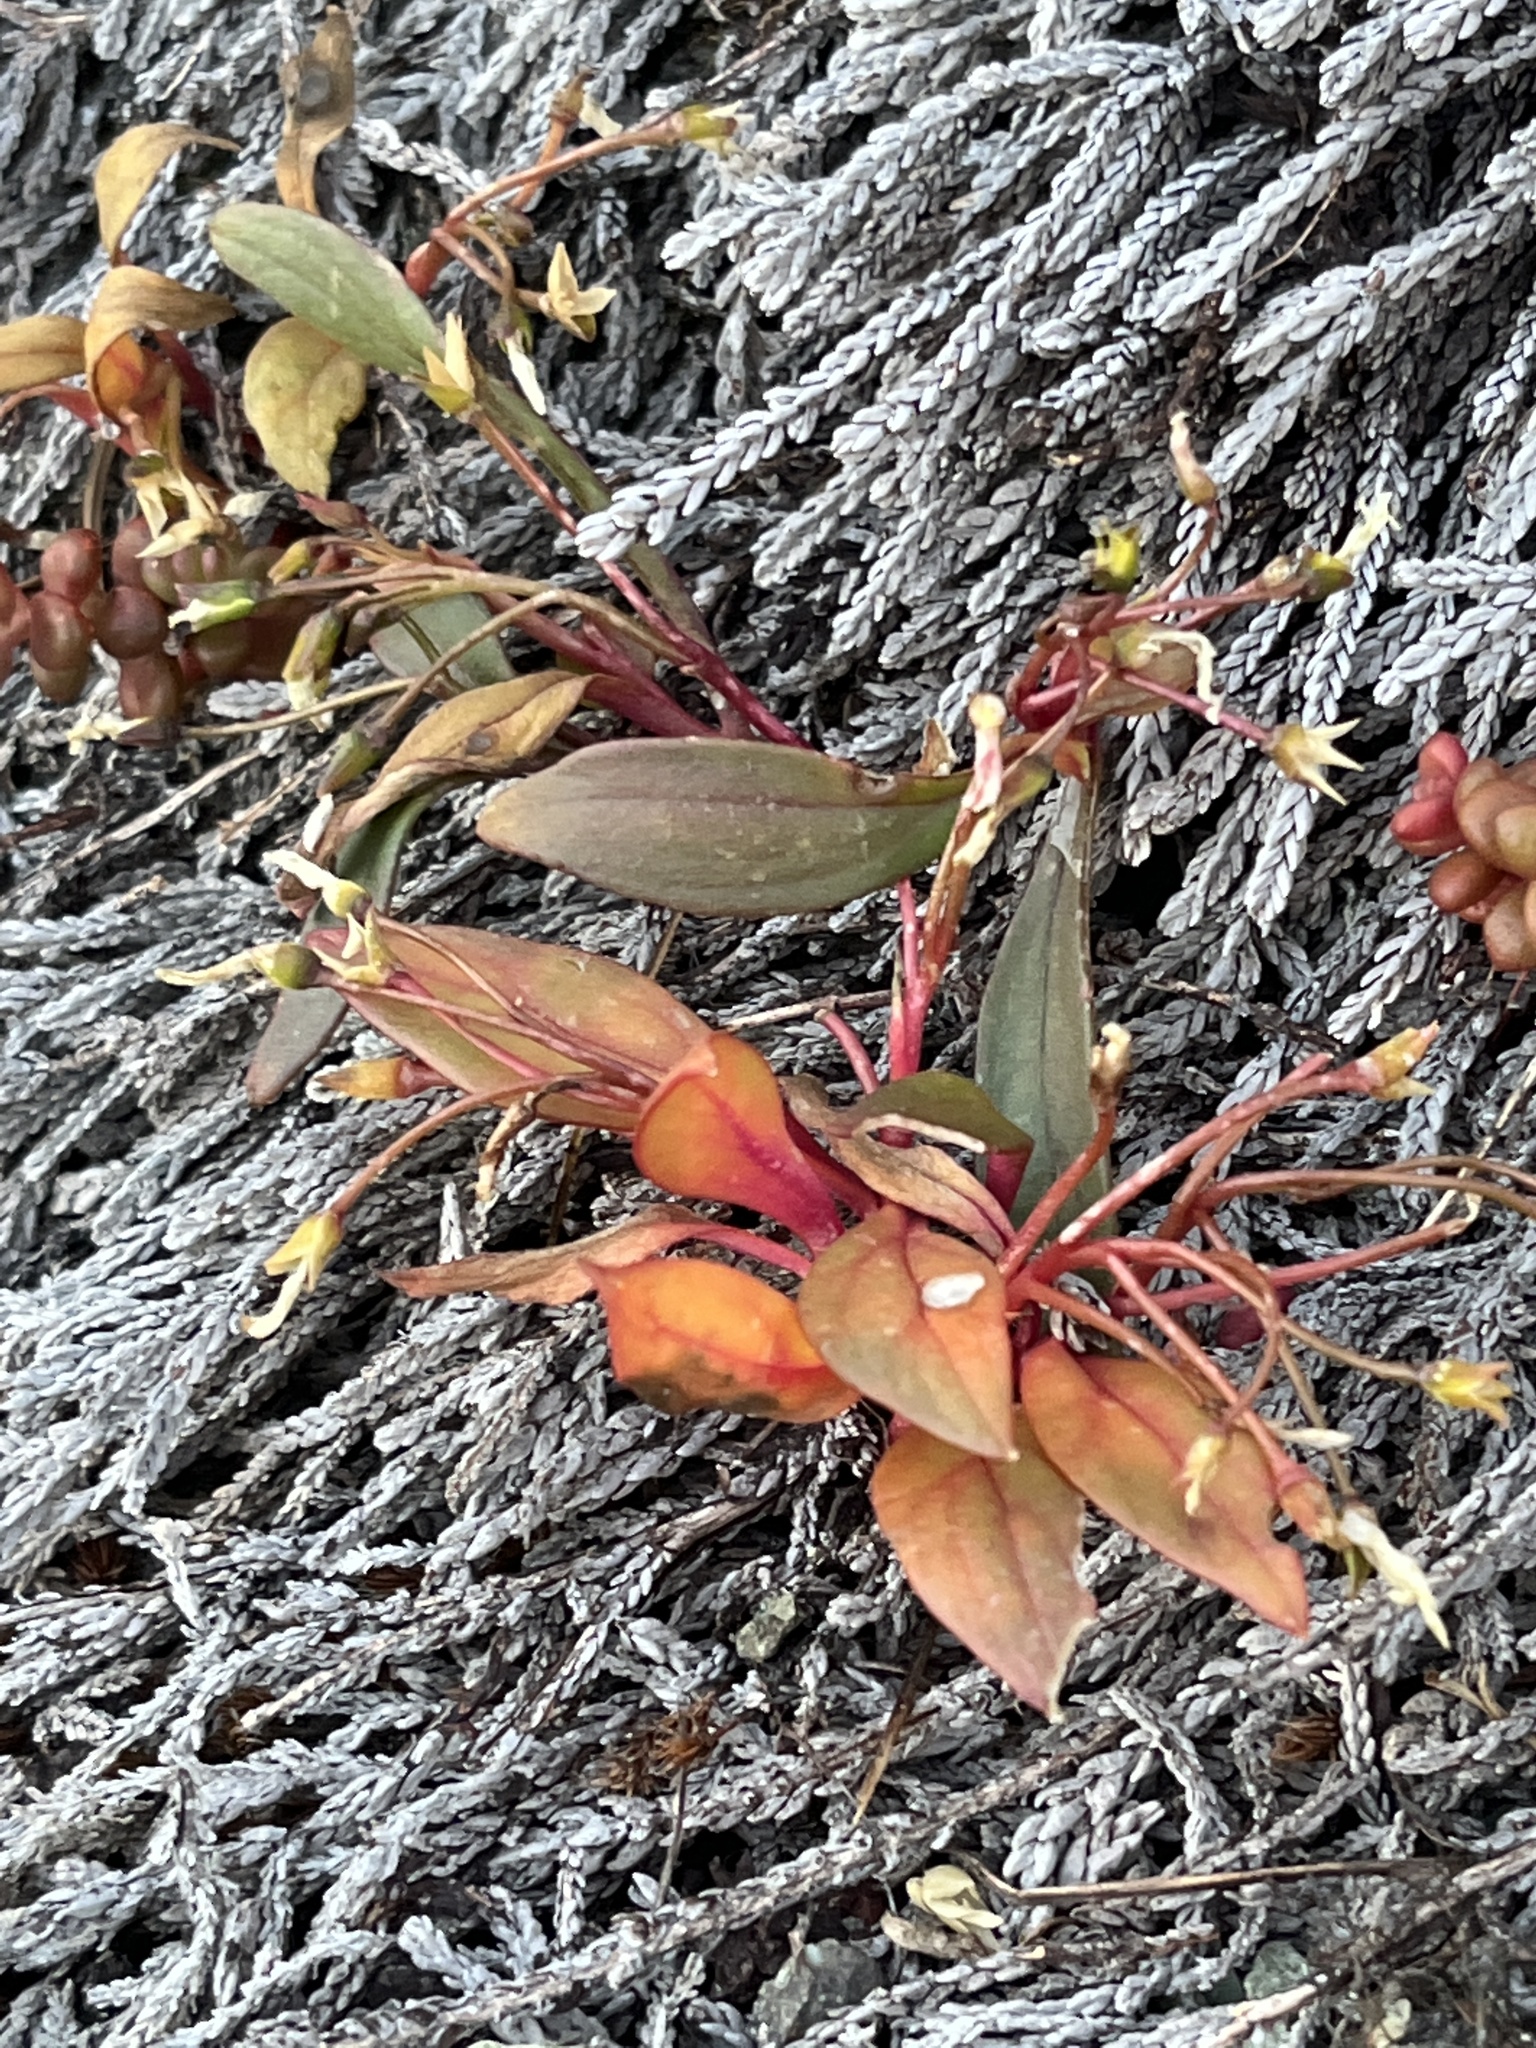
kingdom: Plantae
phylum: Tracheophyta
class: Magnoliopsida
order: Caryophyllales
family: Montiaceae
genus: Claytonia
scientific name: Claytonia multiscapa
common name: Lanceleaf springbeauty
